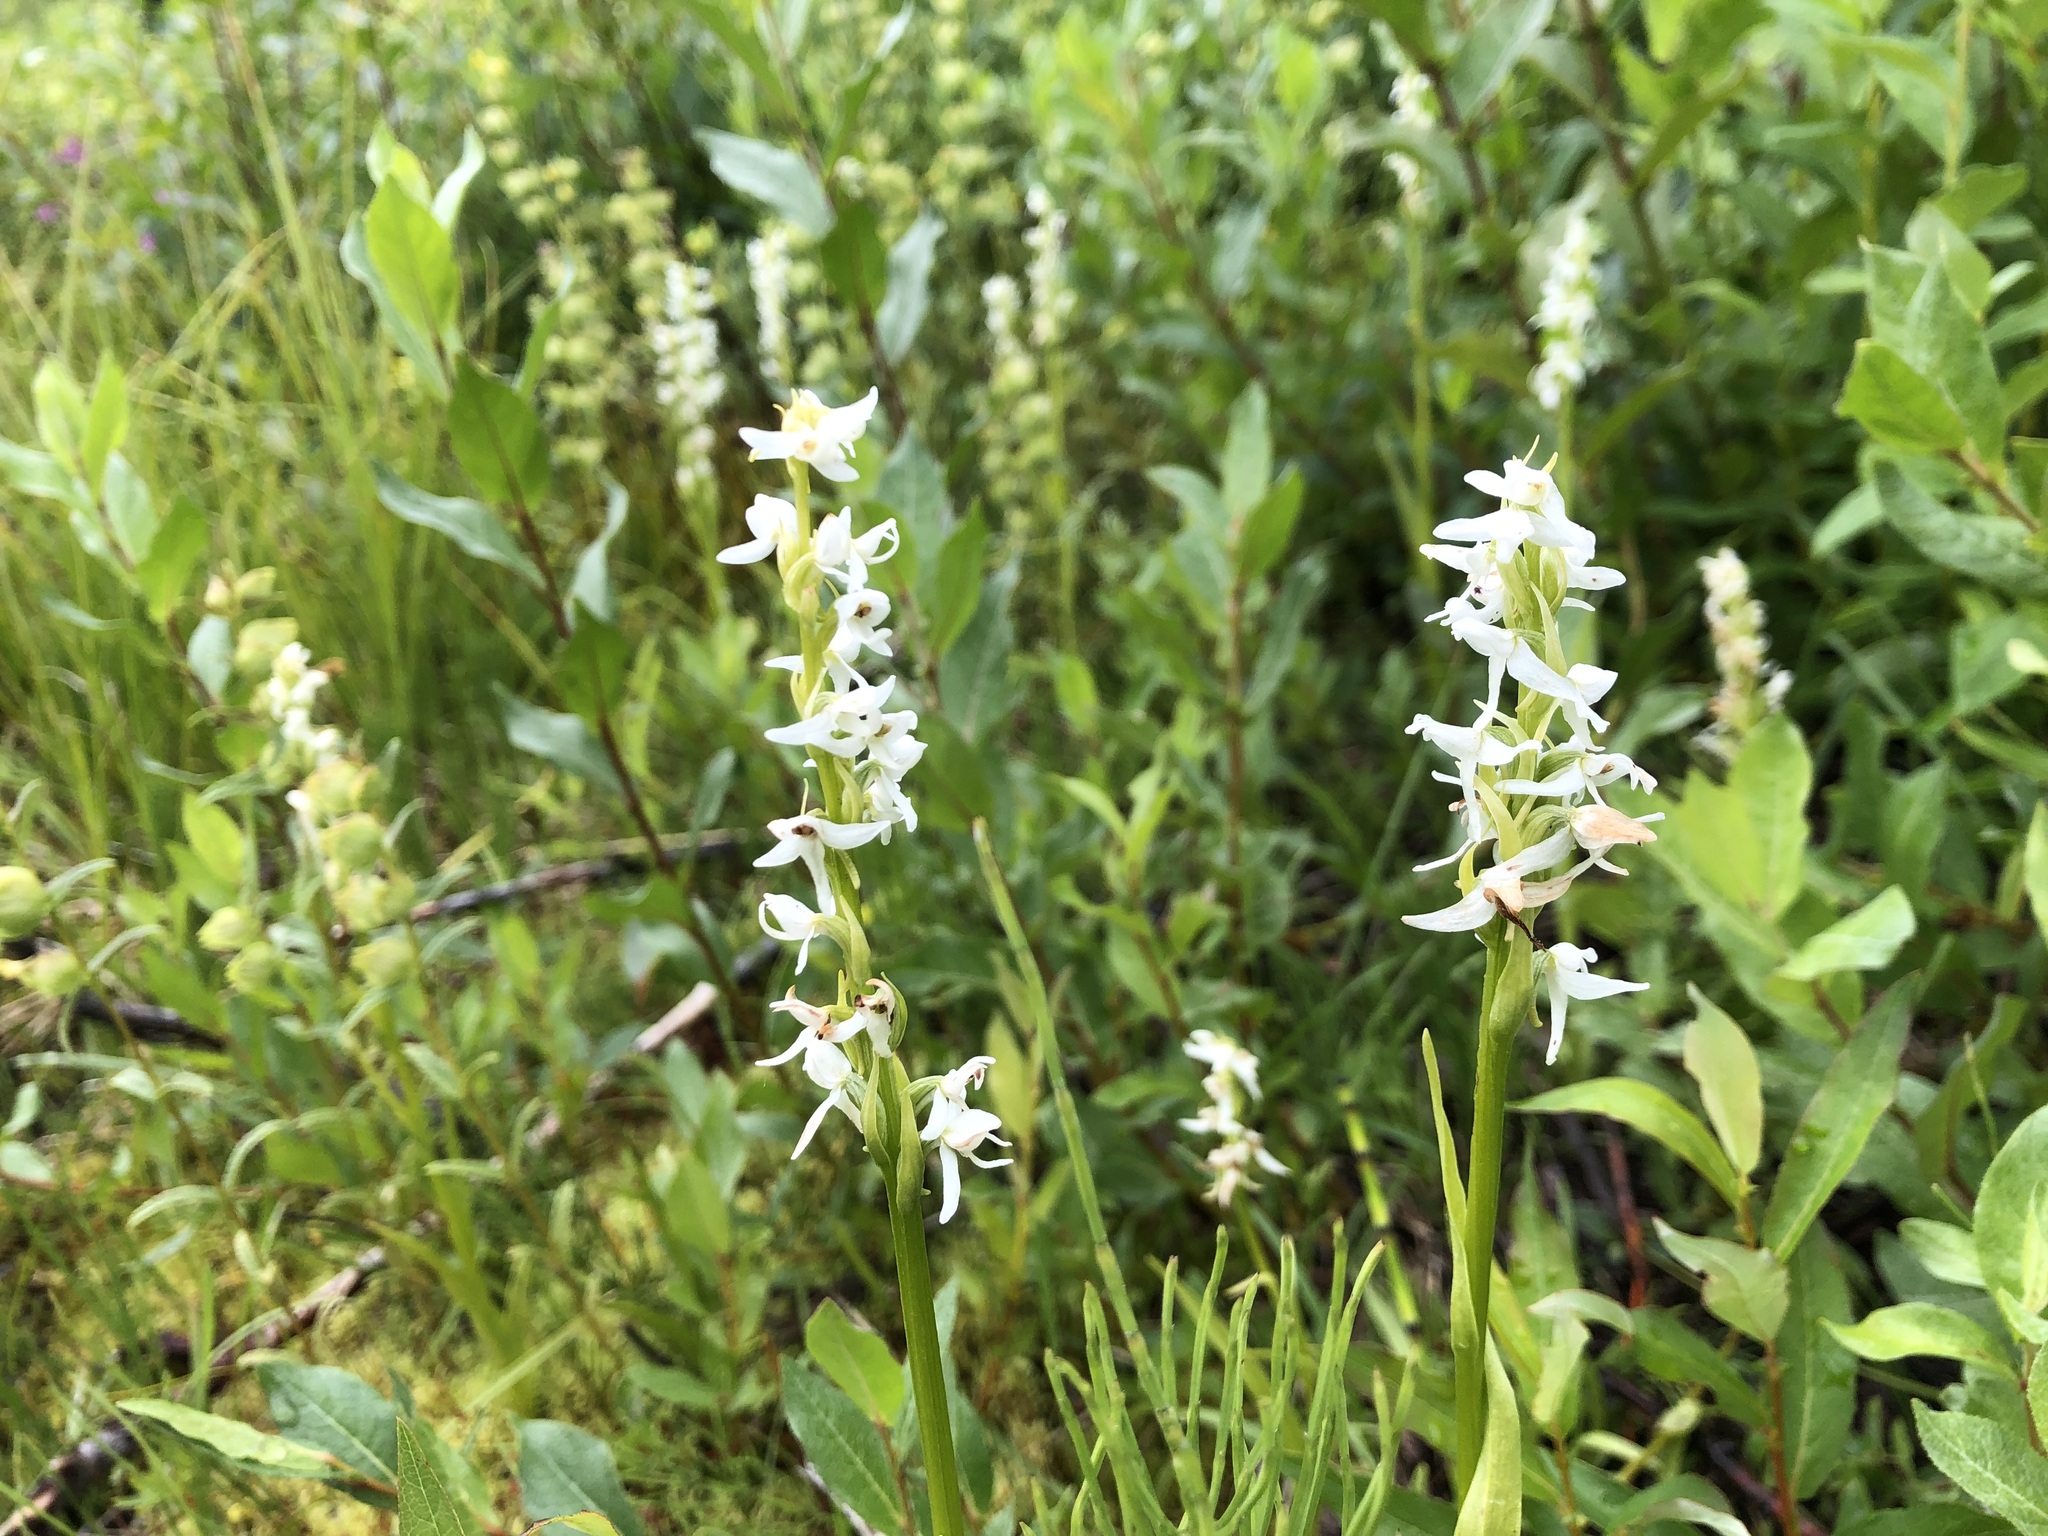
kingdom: Plantae
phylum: Tracheophyta
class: Liliopsida
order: Asparagales
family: Orchidaceae
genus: Platanthera
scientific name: Platanthera dilatata
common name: Bog candles
